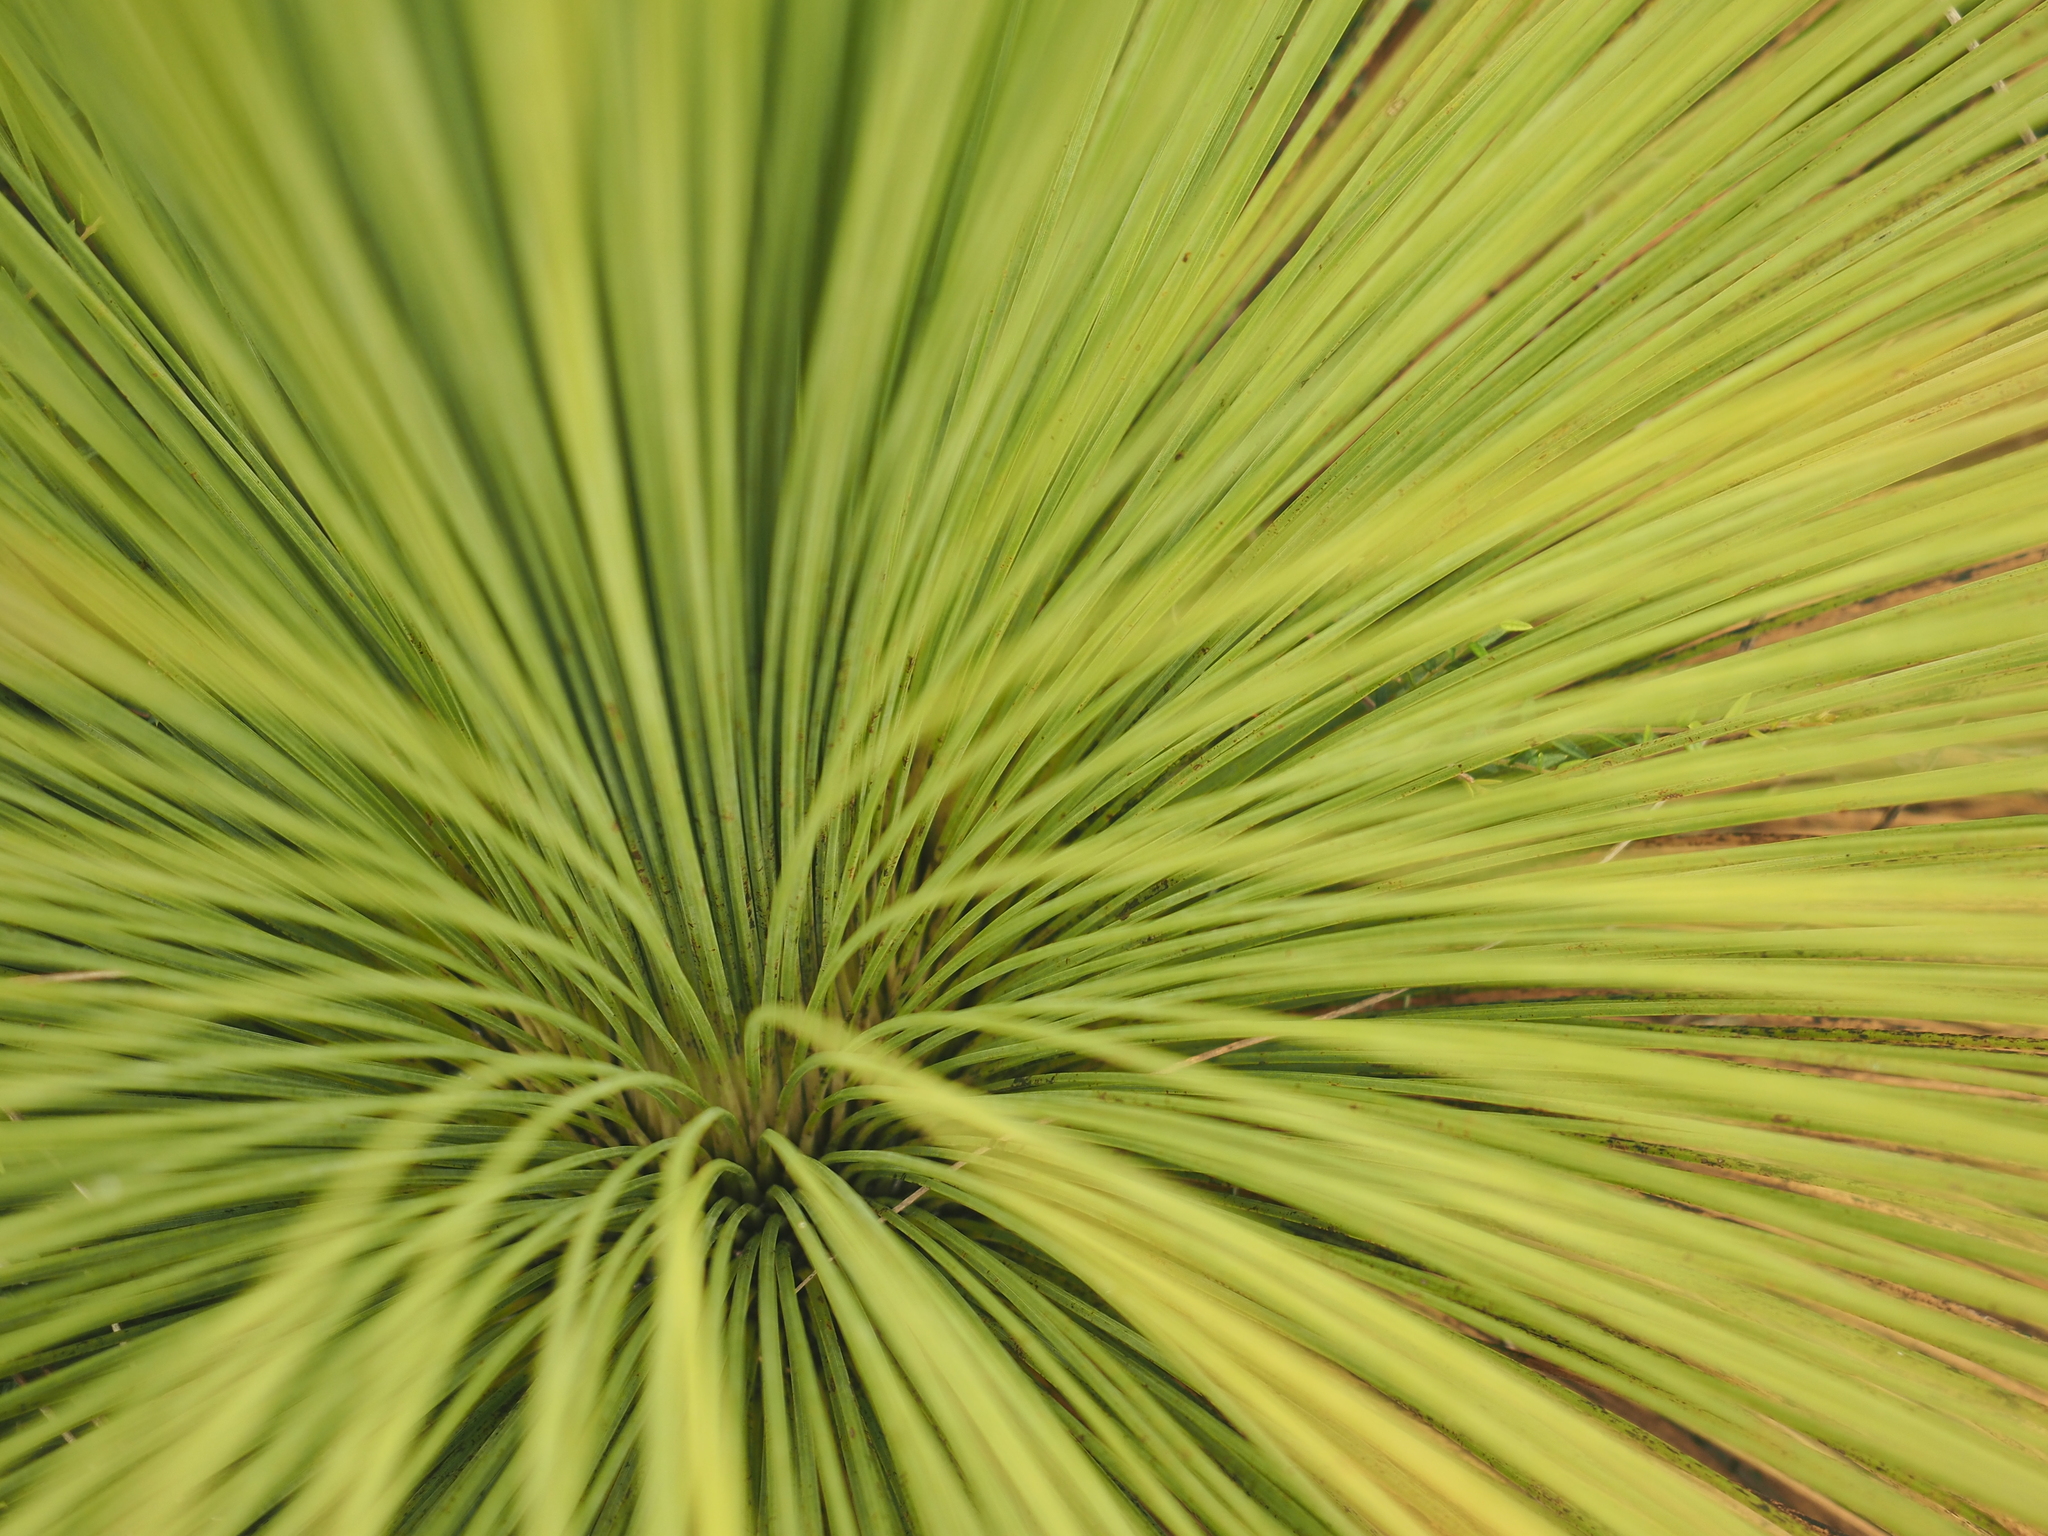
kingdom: Plantae
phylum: Tracheophyta
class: Liliopsida
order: Asparagales
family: Asphodelaceae
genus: Xanthorrhoea
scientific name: Xanthorrhoea australis
